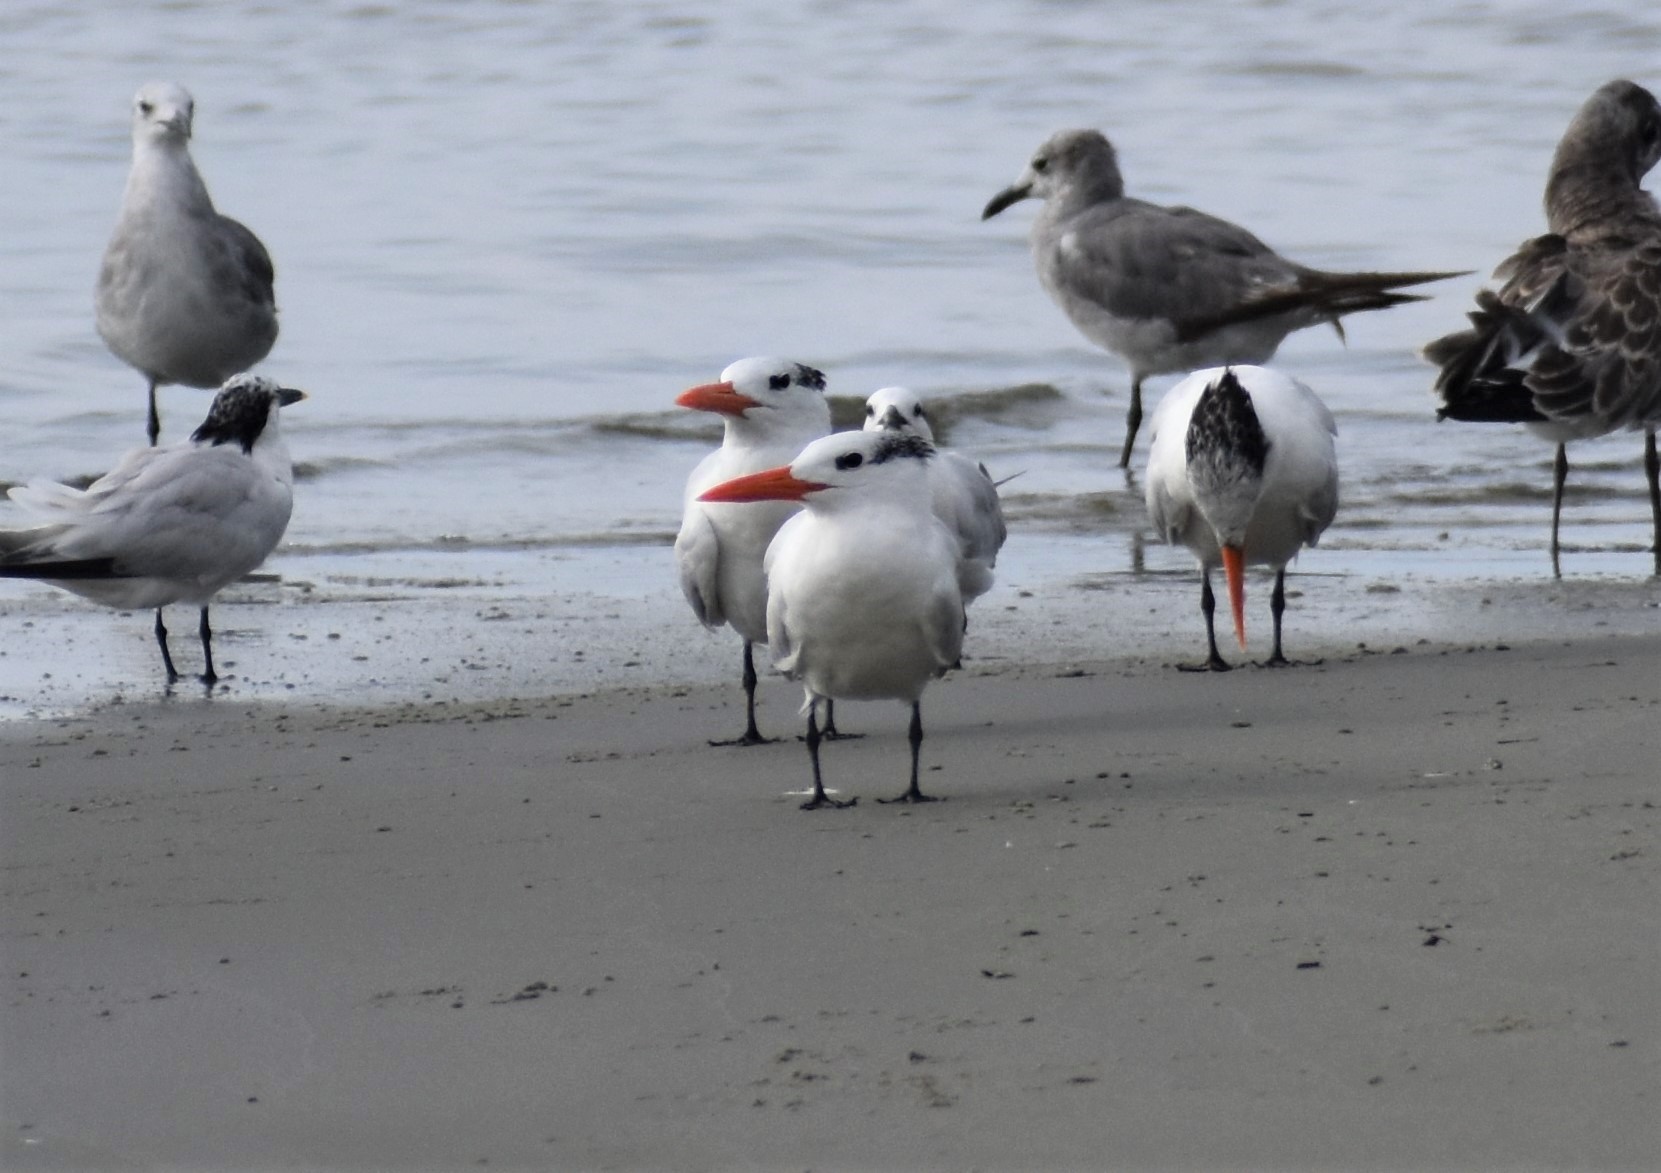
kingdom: Animalia
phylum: Chordata
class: Aves
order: Charadriiformes
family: Laridae
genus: Thalasseus
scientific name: Thalasseus maximus
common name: Royal tern
